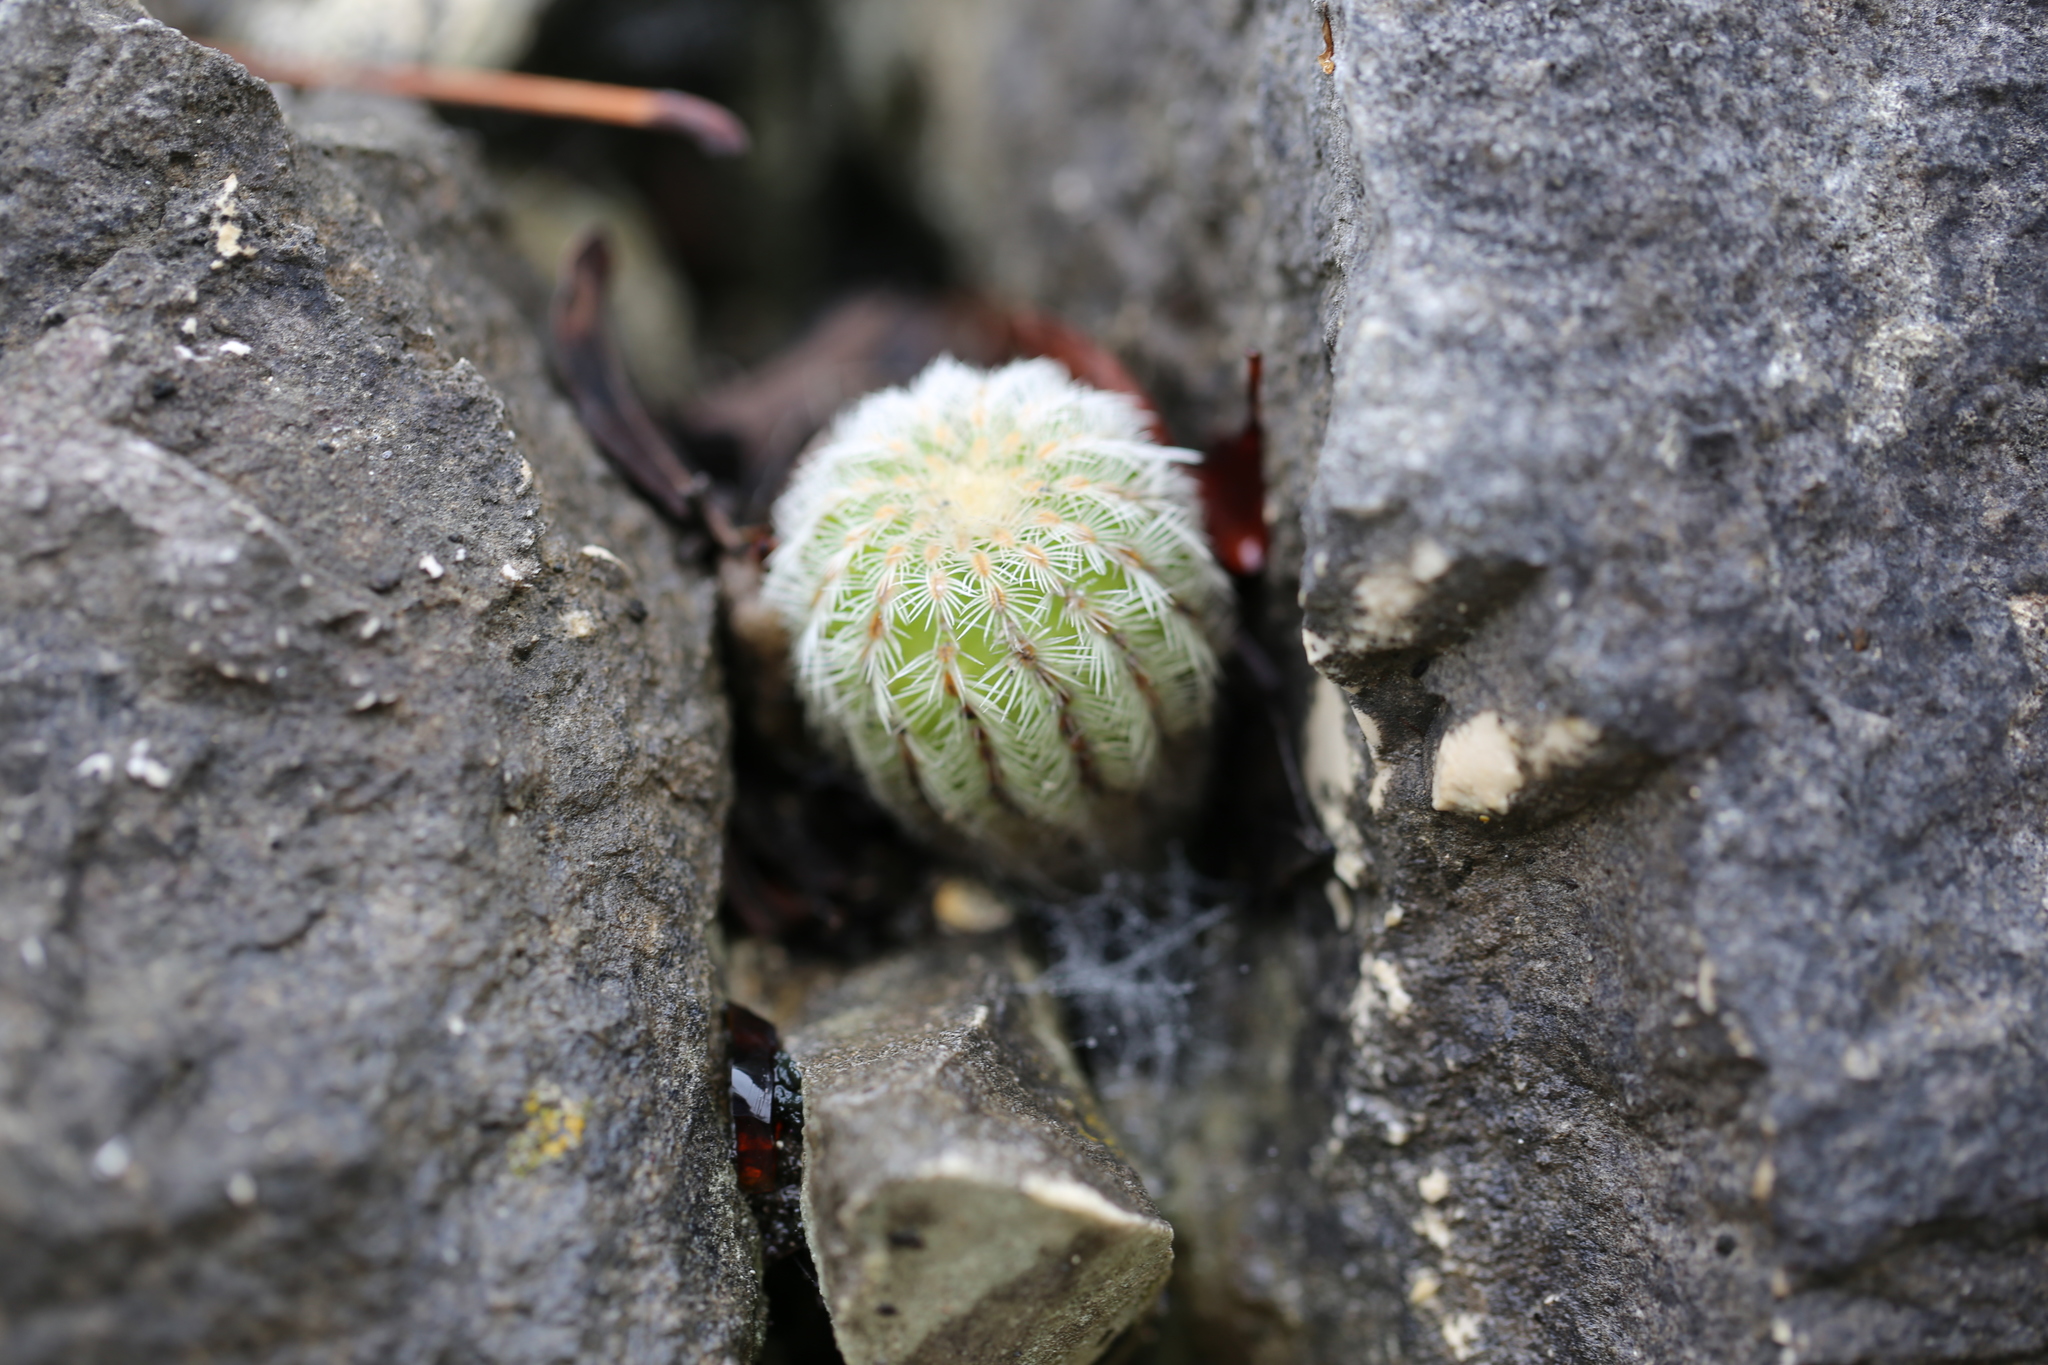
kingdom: Plantae
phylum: Tracheophyta
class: Magnoliopsida
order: Caryophyllales
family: Cactaceae
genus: Echinocereus
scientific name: Echinocereus reichenbachii
